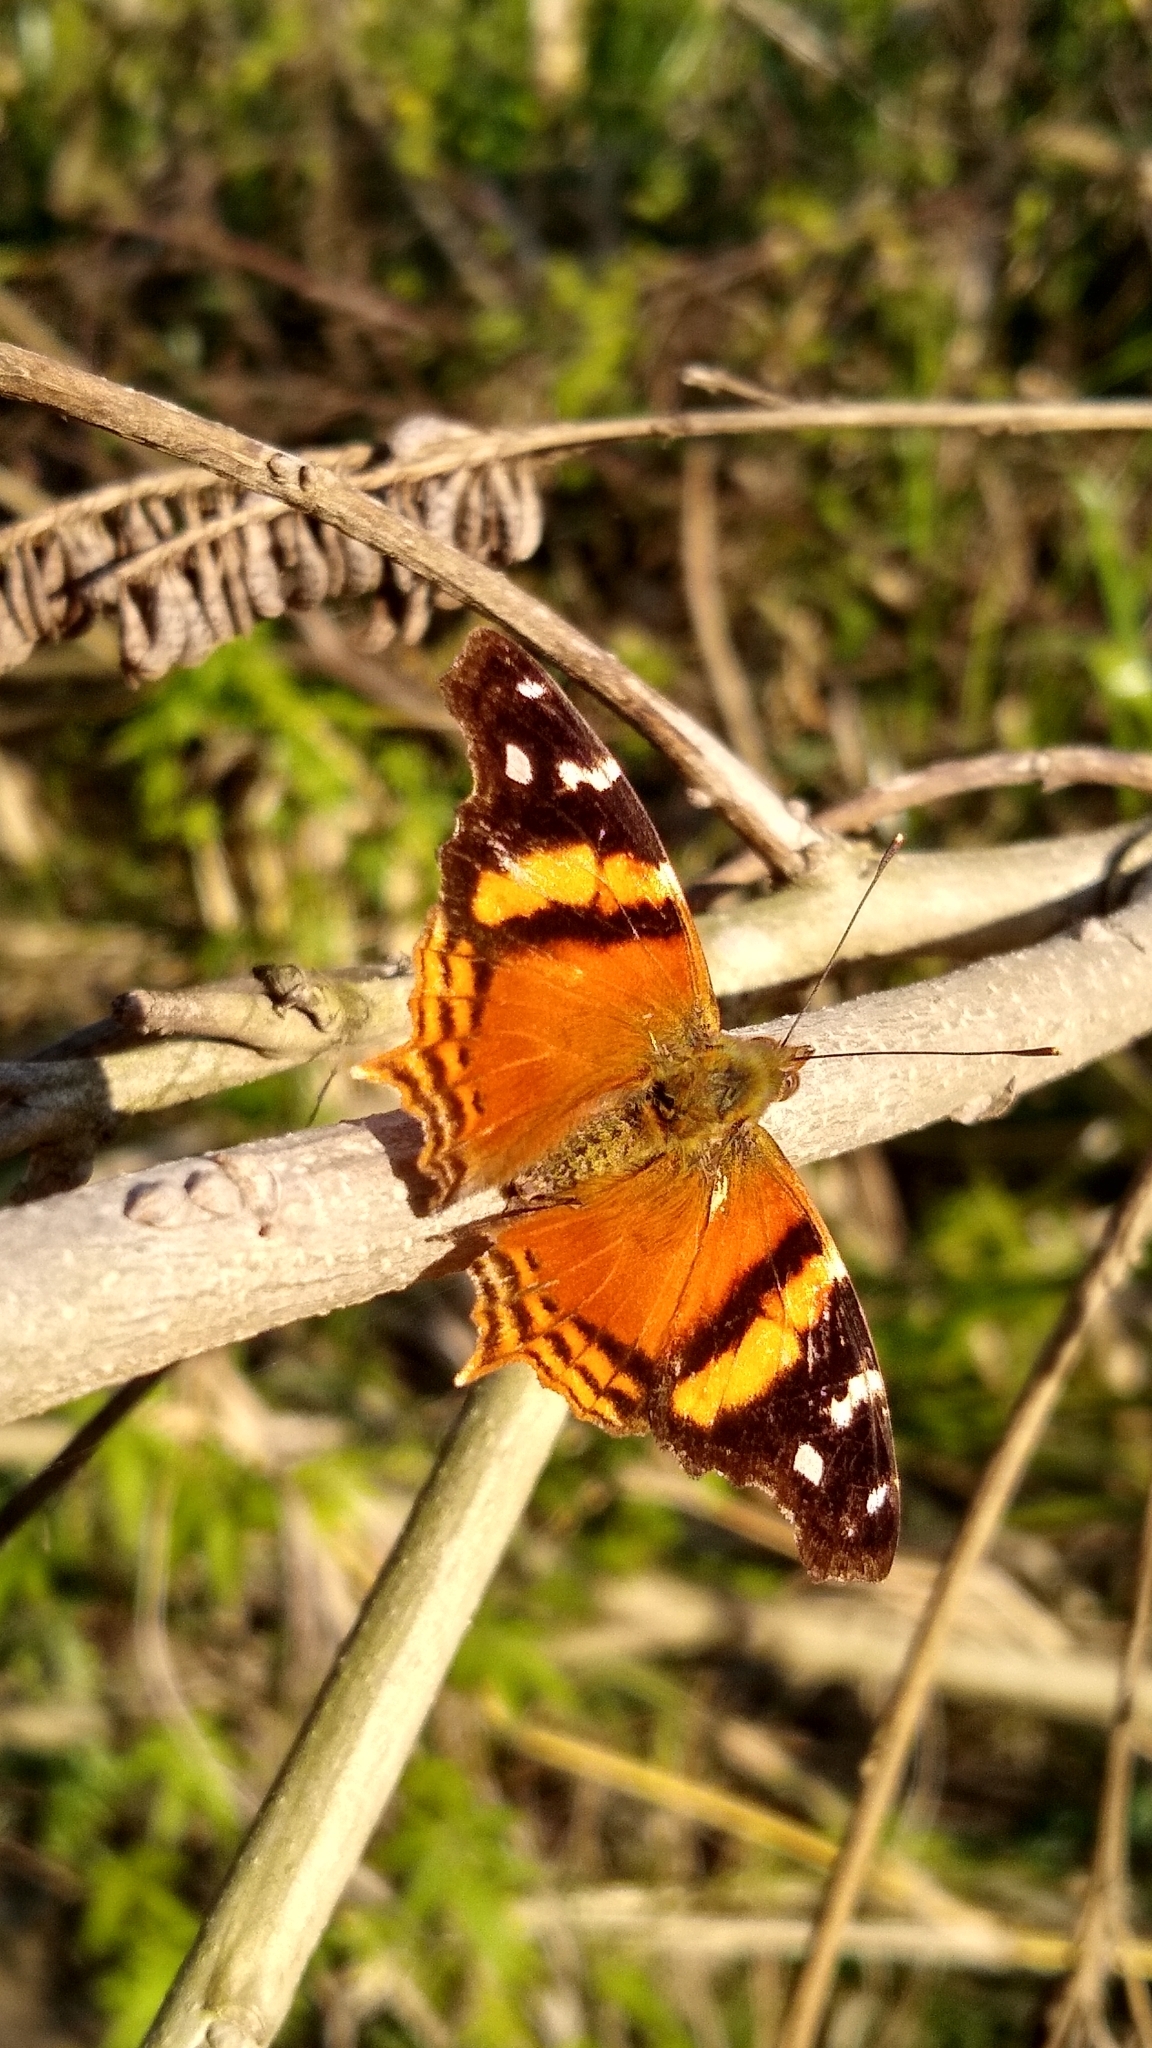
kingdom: Animalia
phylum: Arthropoda
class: Insecta
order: Lepidoptera
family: Nymphalidae
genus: Hypanartia
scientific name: Hypanartia bella
